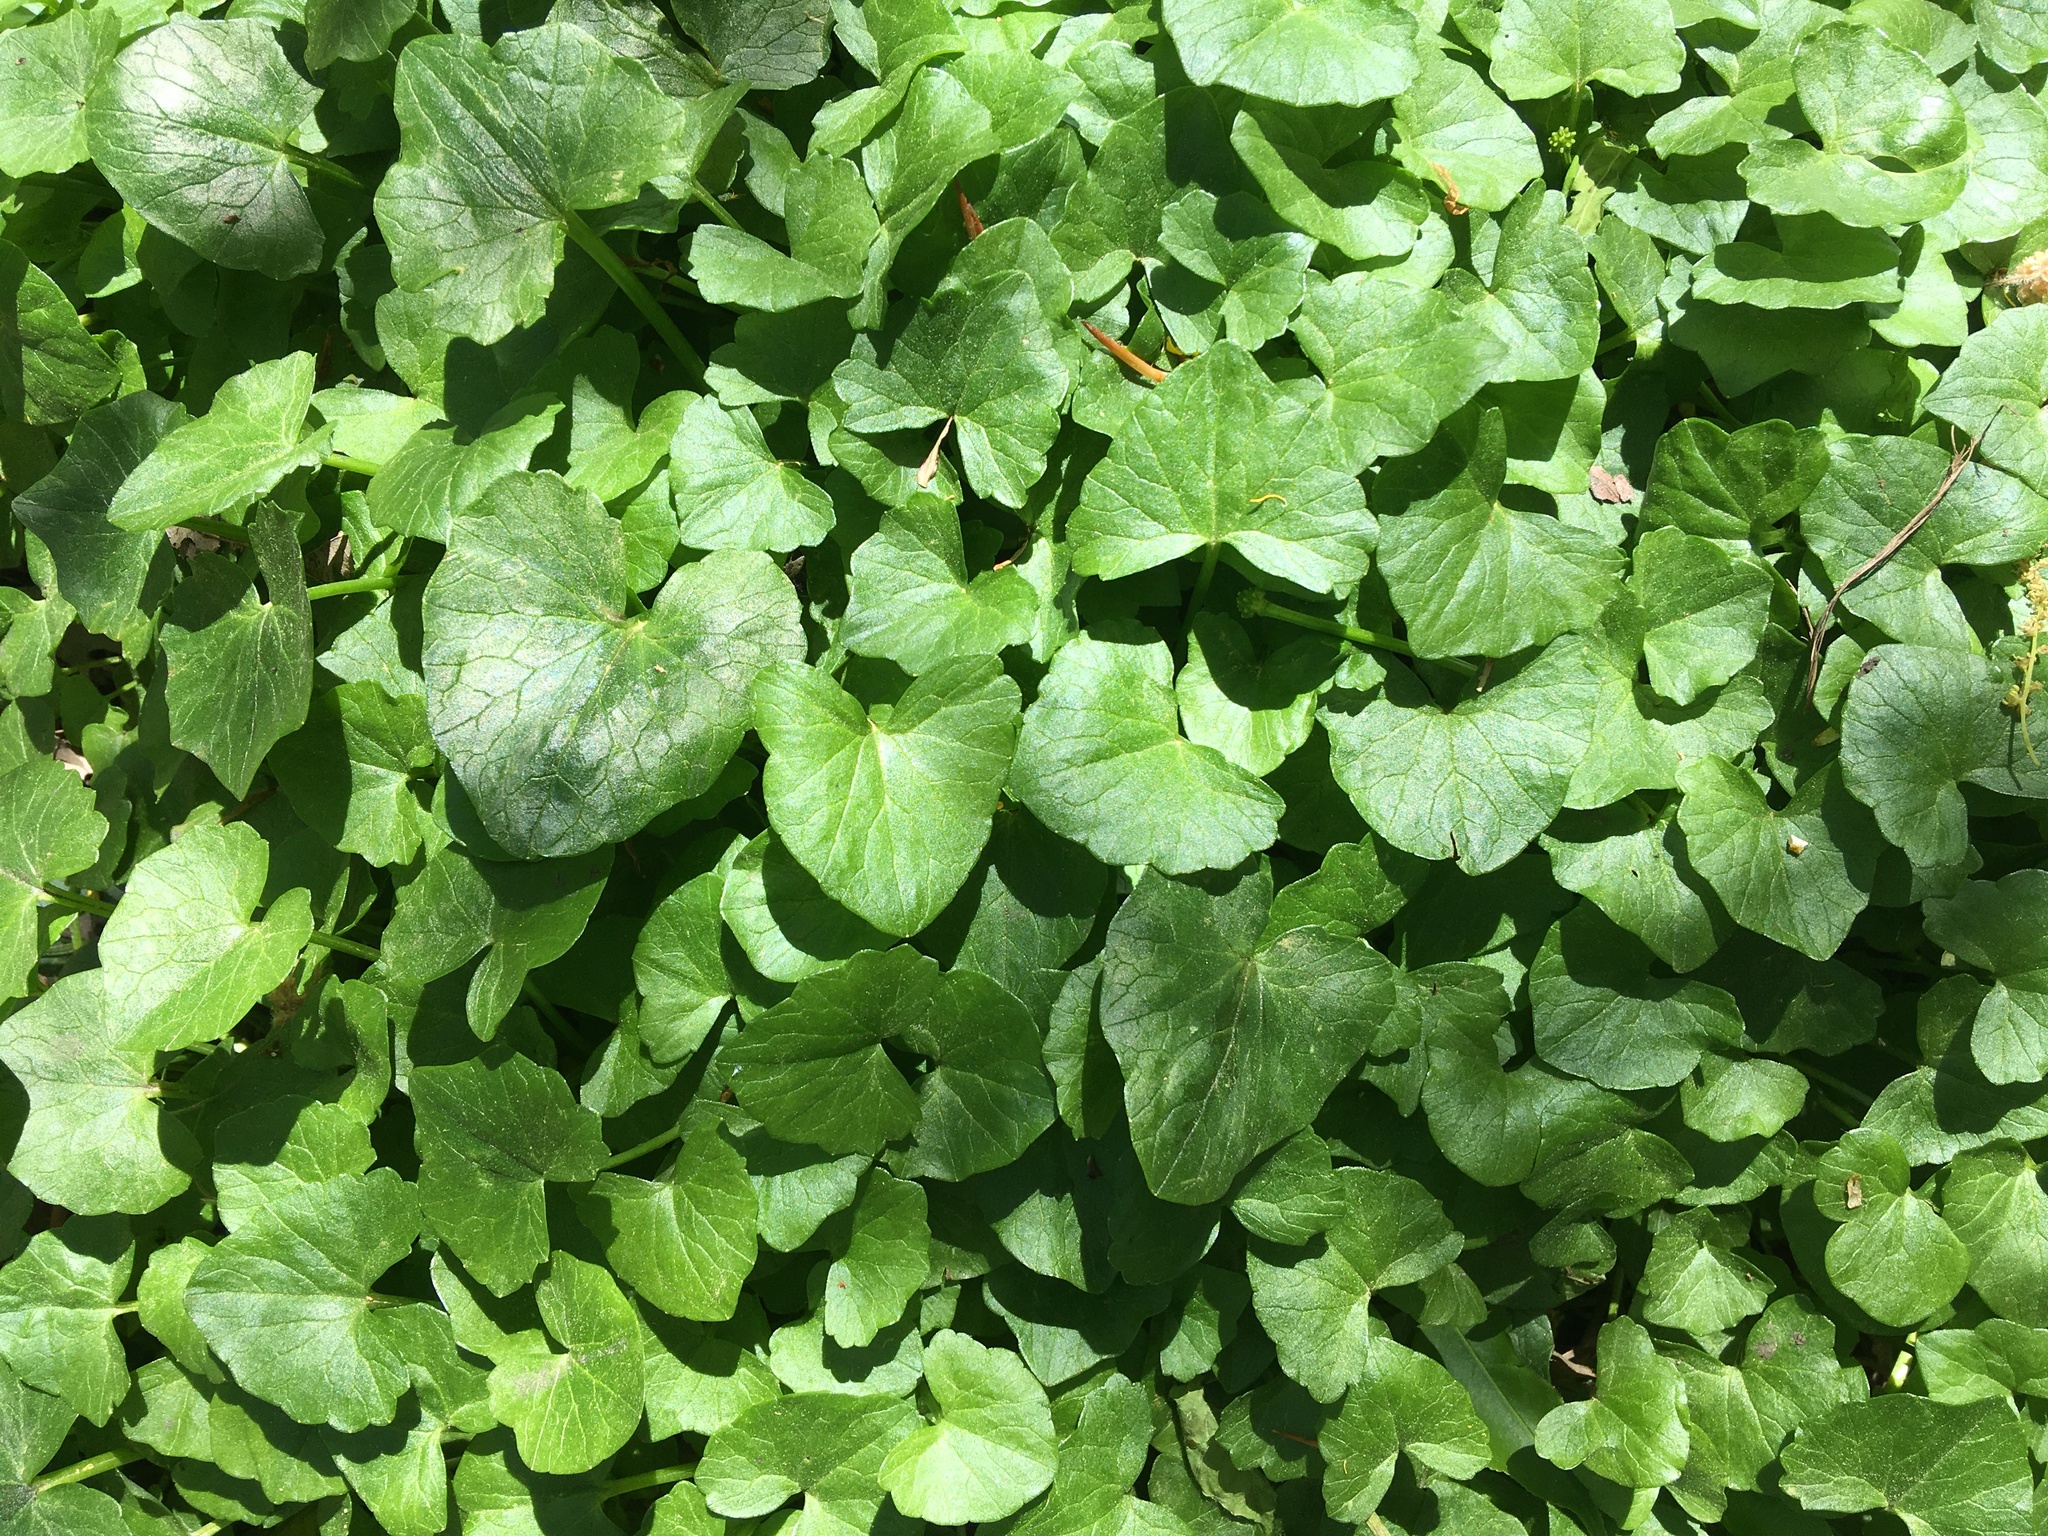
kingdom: Plantae
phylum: Tracheophyta
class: Magnoliopsida
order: Ranunculales
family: Ranunculaceae
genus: Ficaria
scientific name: Ficaria verna
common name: Lesser celandine
